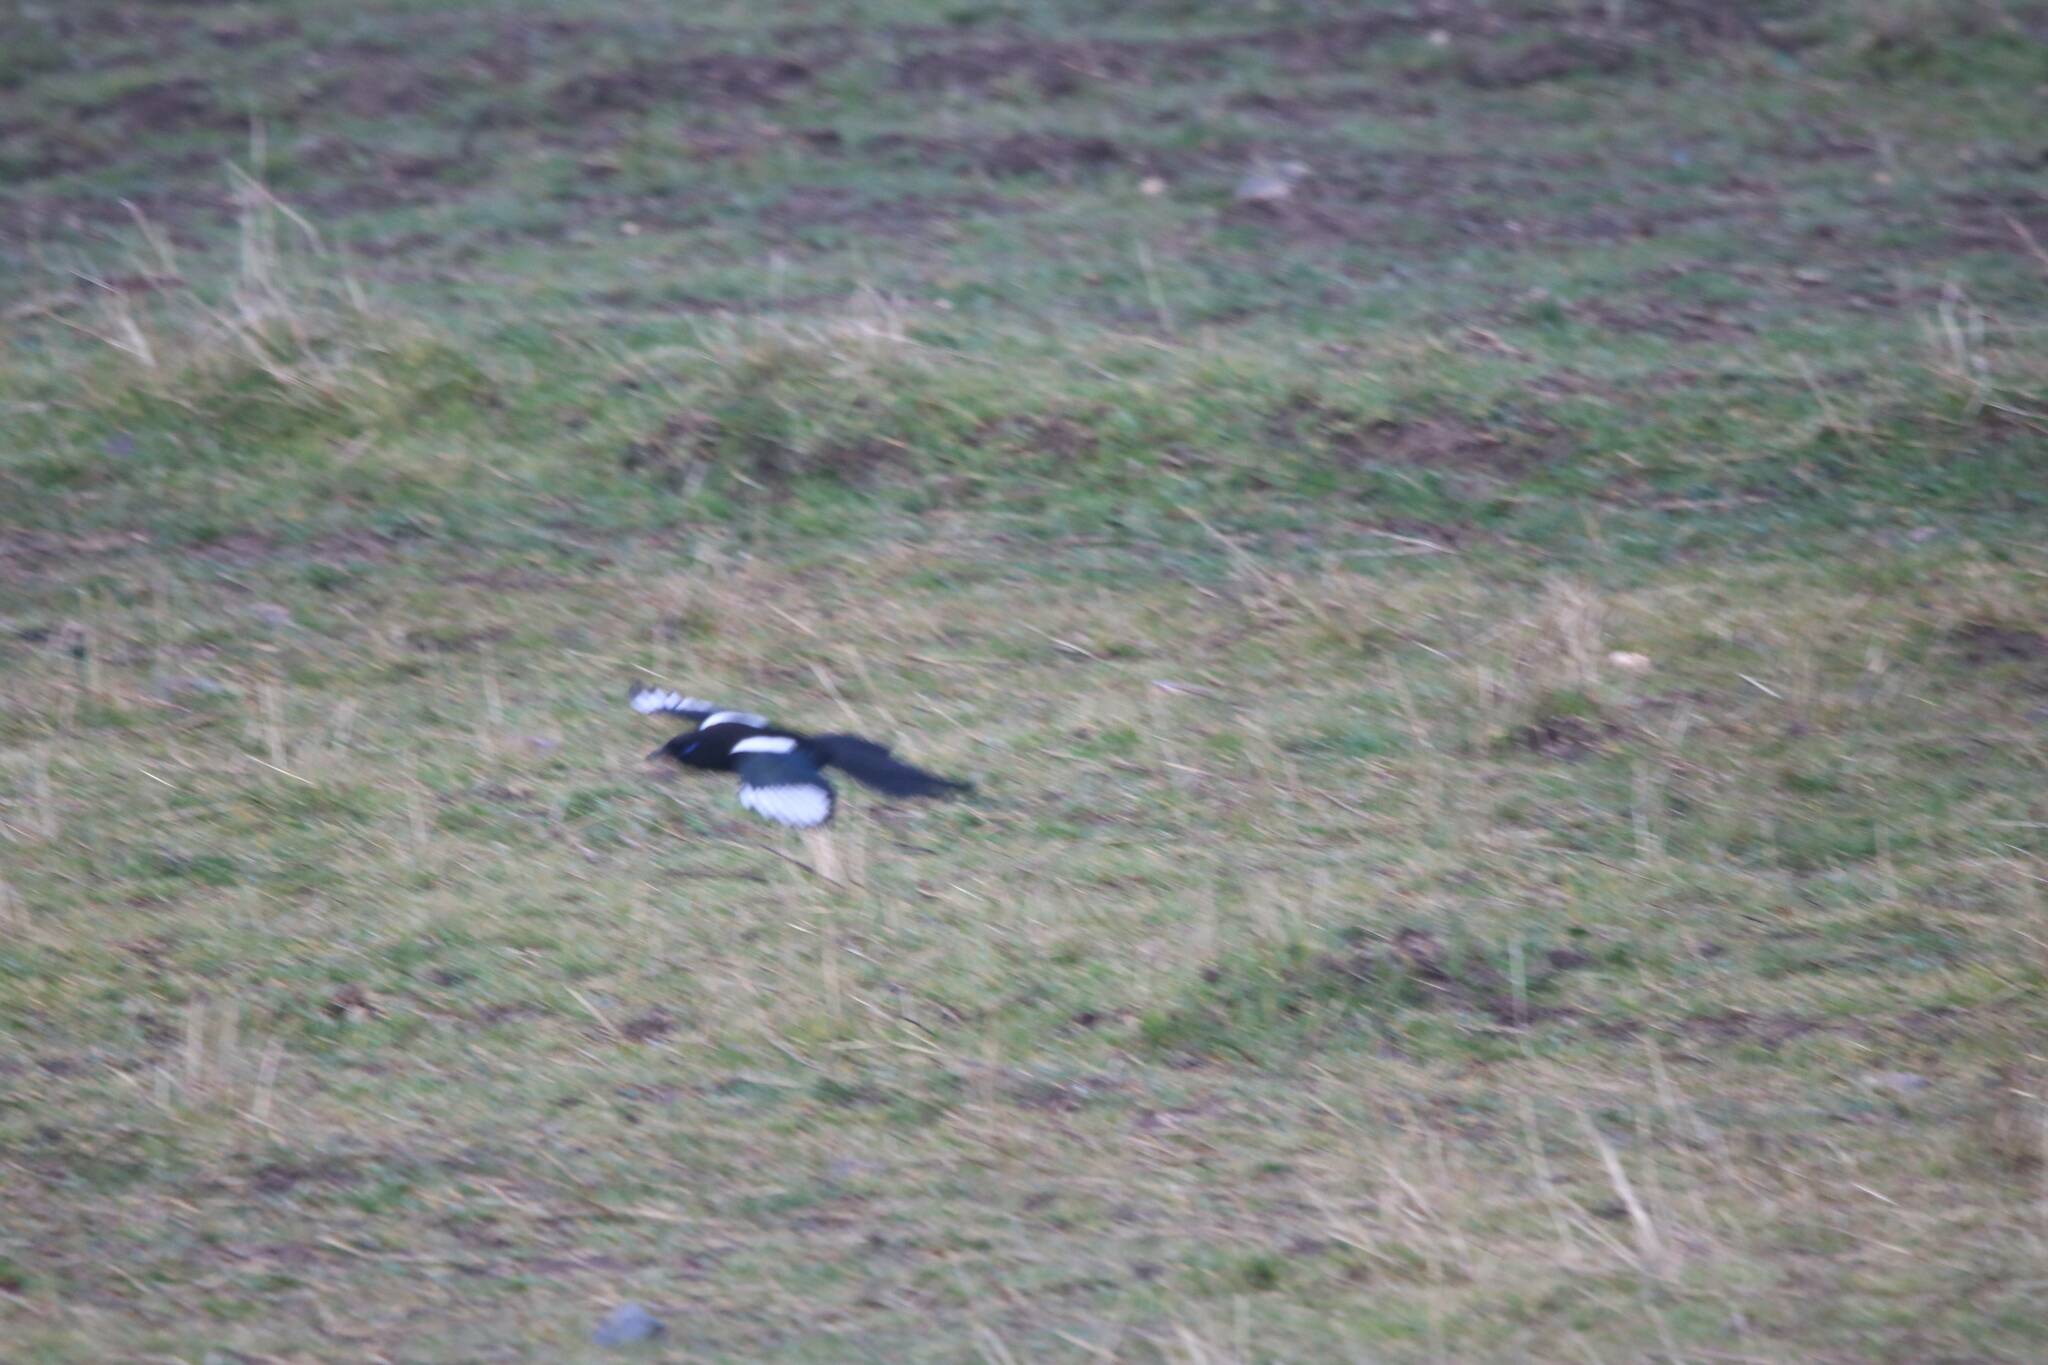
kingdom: Animalia
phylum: Chordata
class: Aves
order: Passeriformes
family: Corvidae
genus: Pica
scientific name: Pica mauritanica
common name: Maghreb magpie
